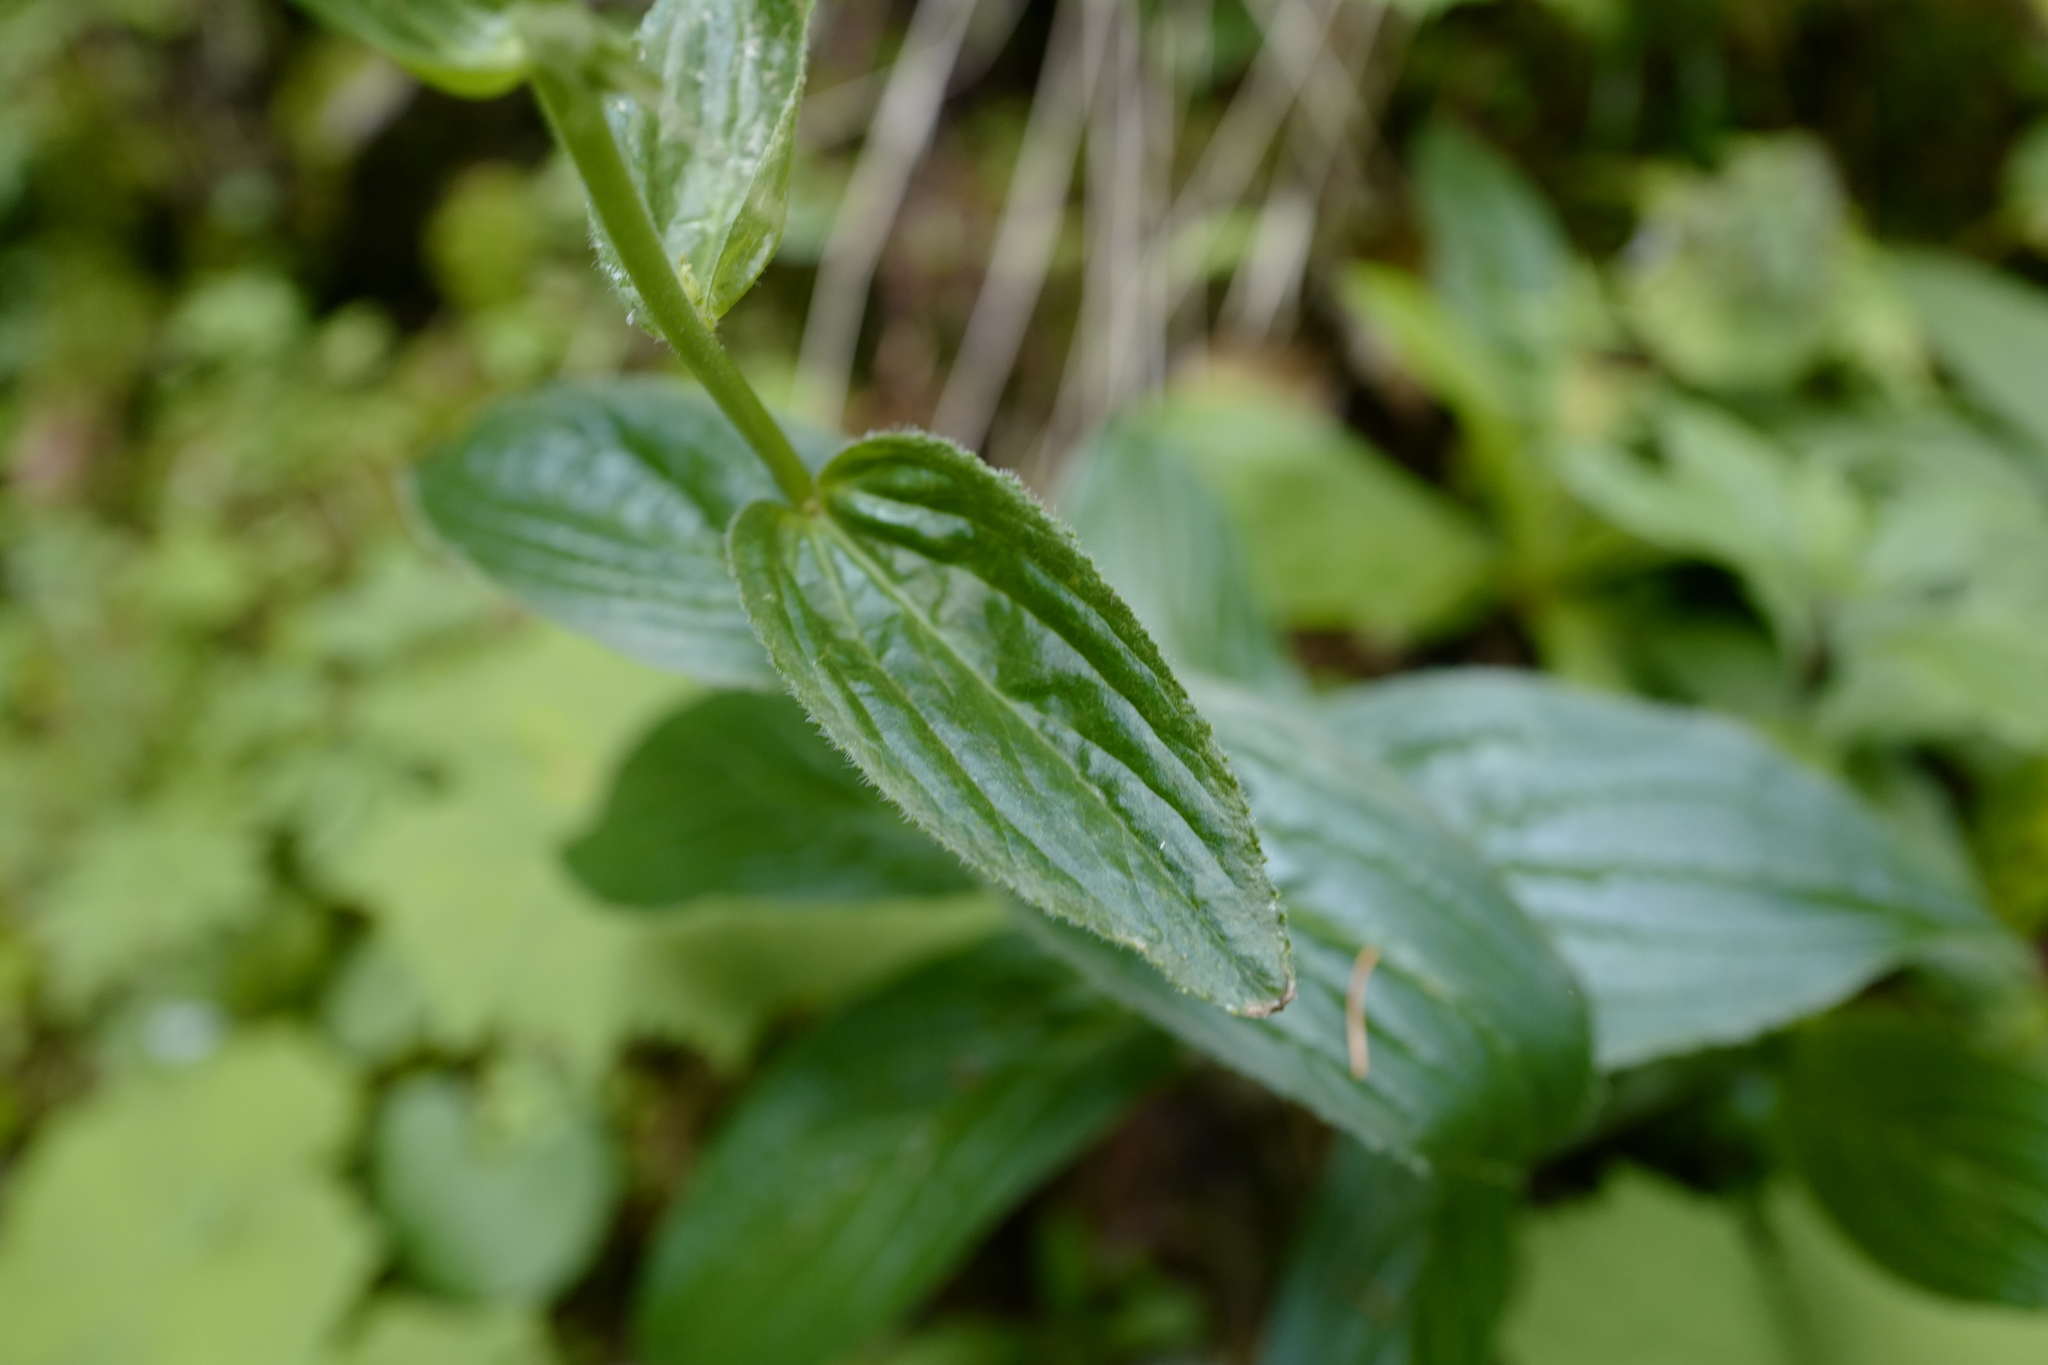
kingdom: Plantae
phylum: Tracheophyta
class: Magnoliopsida
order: Lamiales
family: Plantaginaceae
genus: Digitalis
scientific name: Digitalis grandiflora
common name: Yellow foxglove
